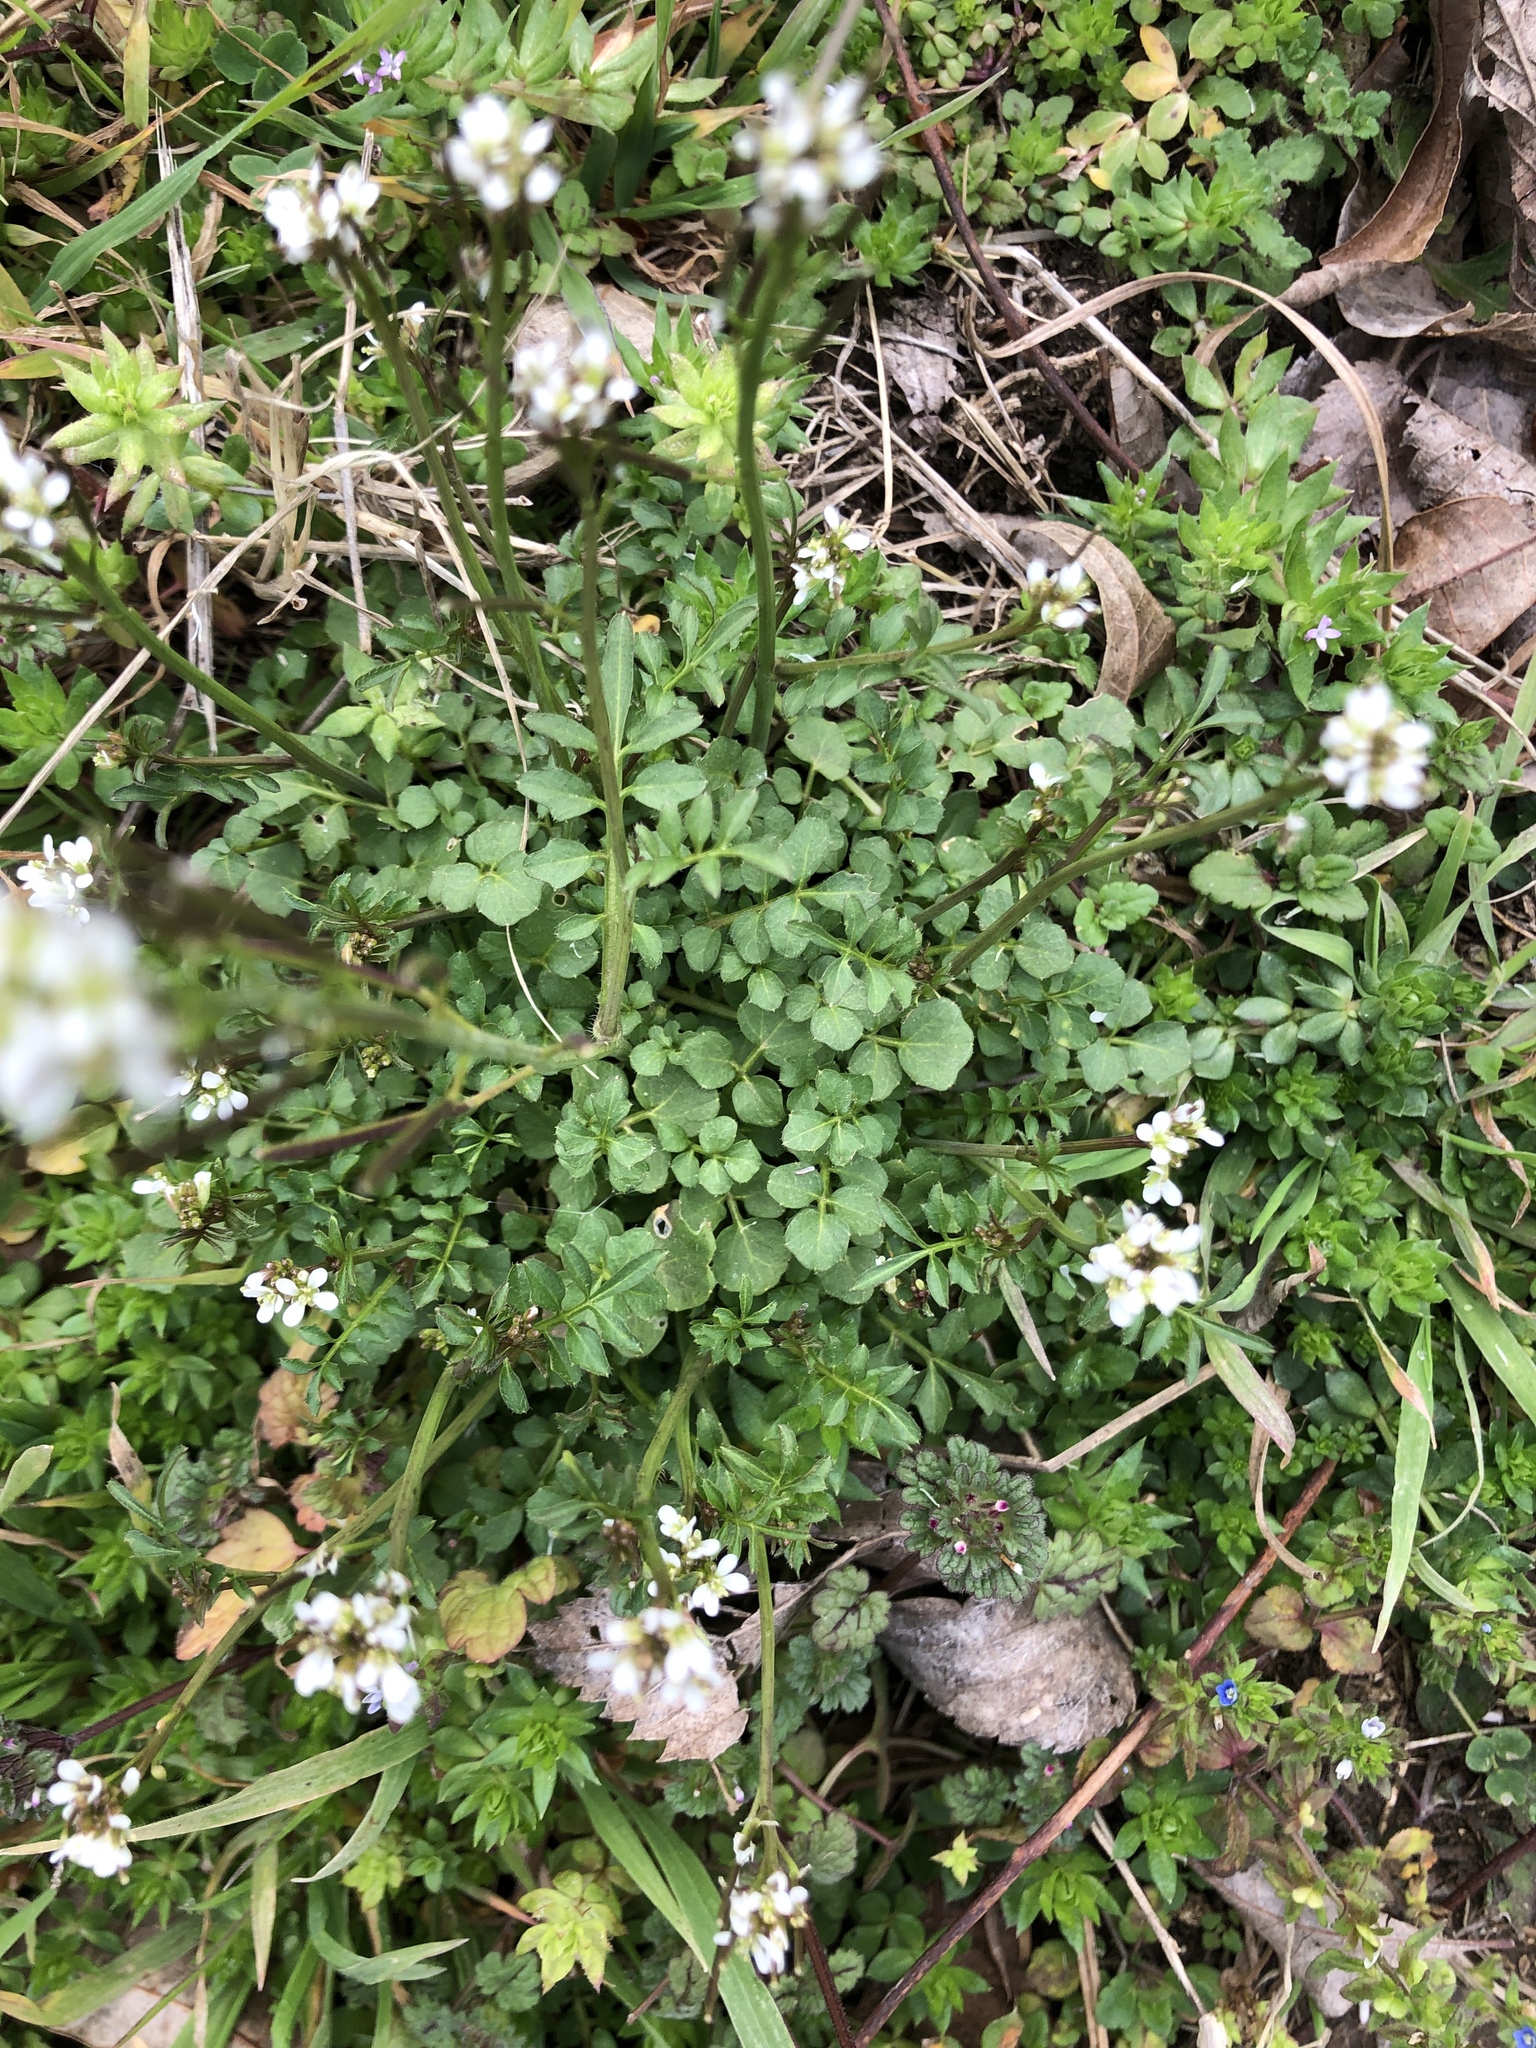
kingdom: Plantae
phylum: Tracheophyta
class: Magnoliopsida
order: Brassicales
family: Brassicaceae
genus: Cardamine
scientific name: Cardamine hirsuta
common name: Hairy bittercress
